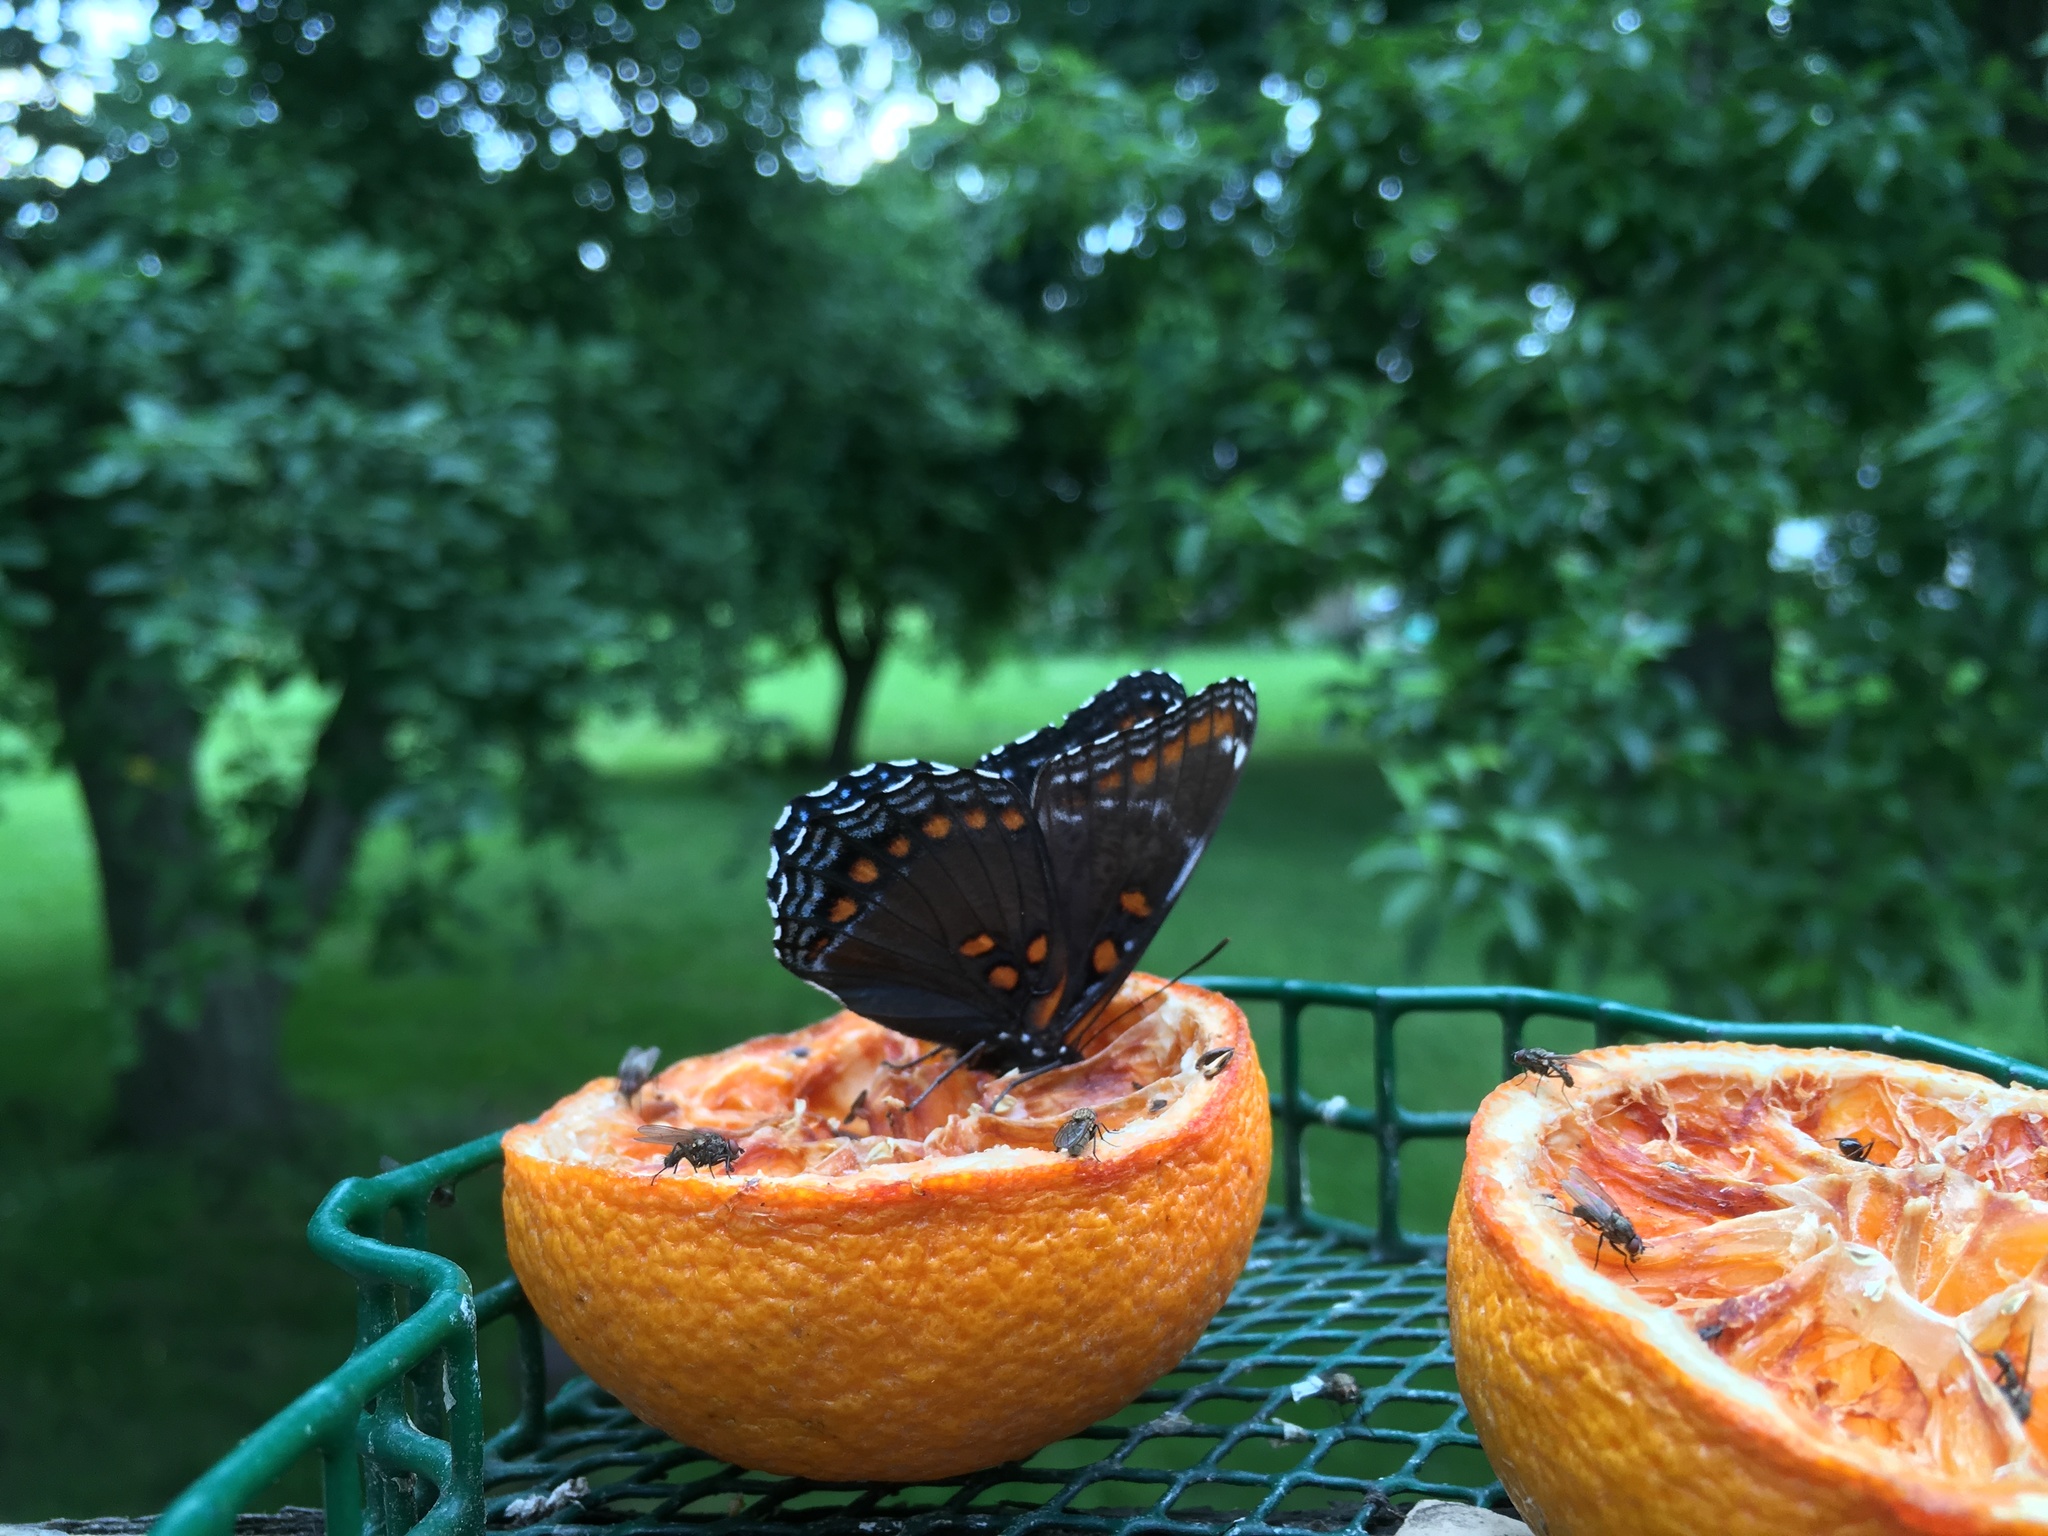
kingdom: Animalia
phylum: Arthropoda
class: Insecta
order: Lepidoptera
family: Nymphalidae
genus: Limenitis
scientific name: Limenitis astyanax
